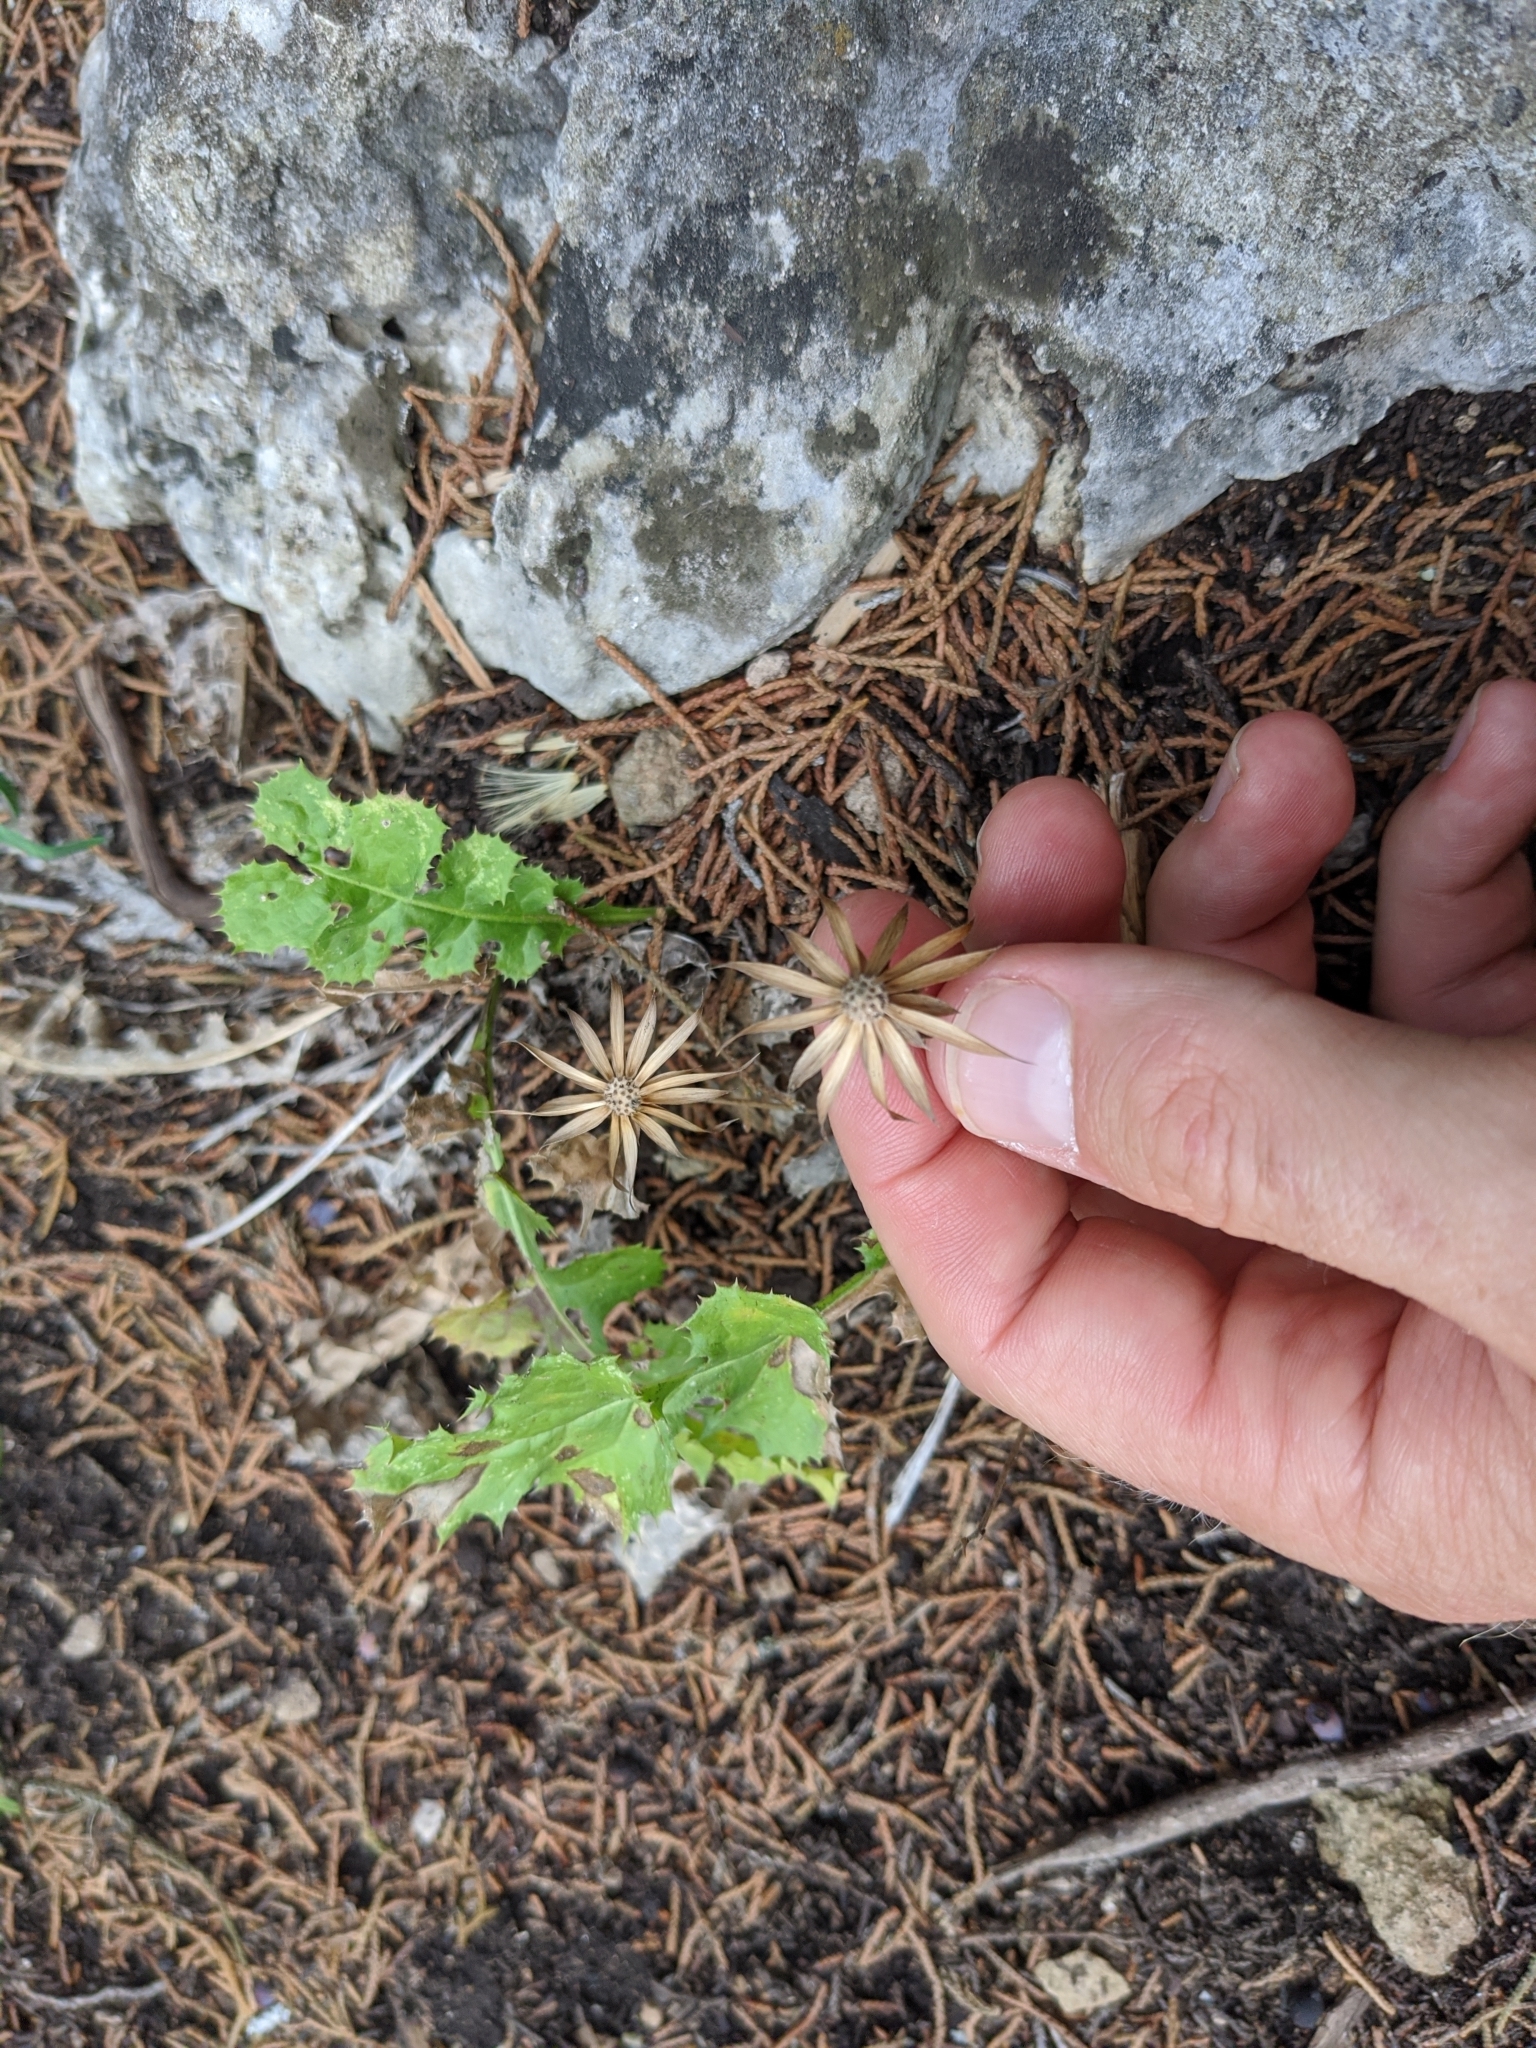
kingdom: Plantae
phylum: Tracheophyta
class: Magnoliopsida
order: Asterales
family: Asteraceae
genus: Acourtia
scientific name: Acourtia runcinata
